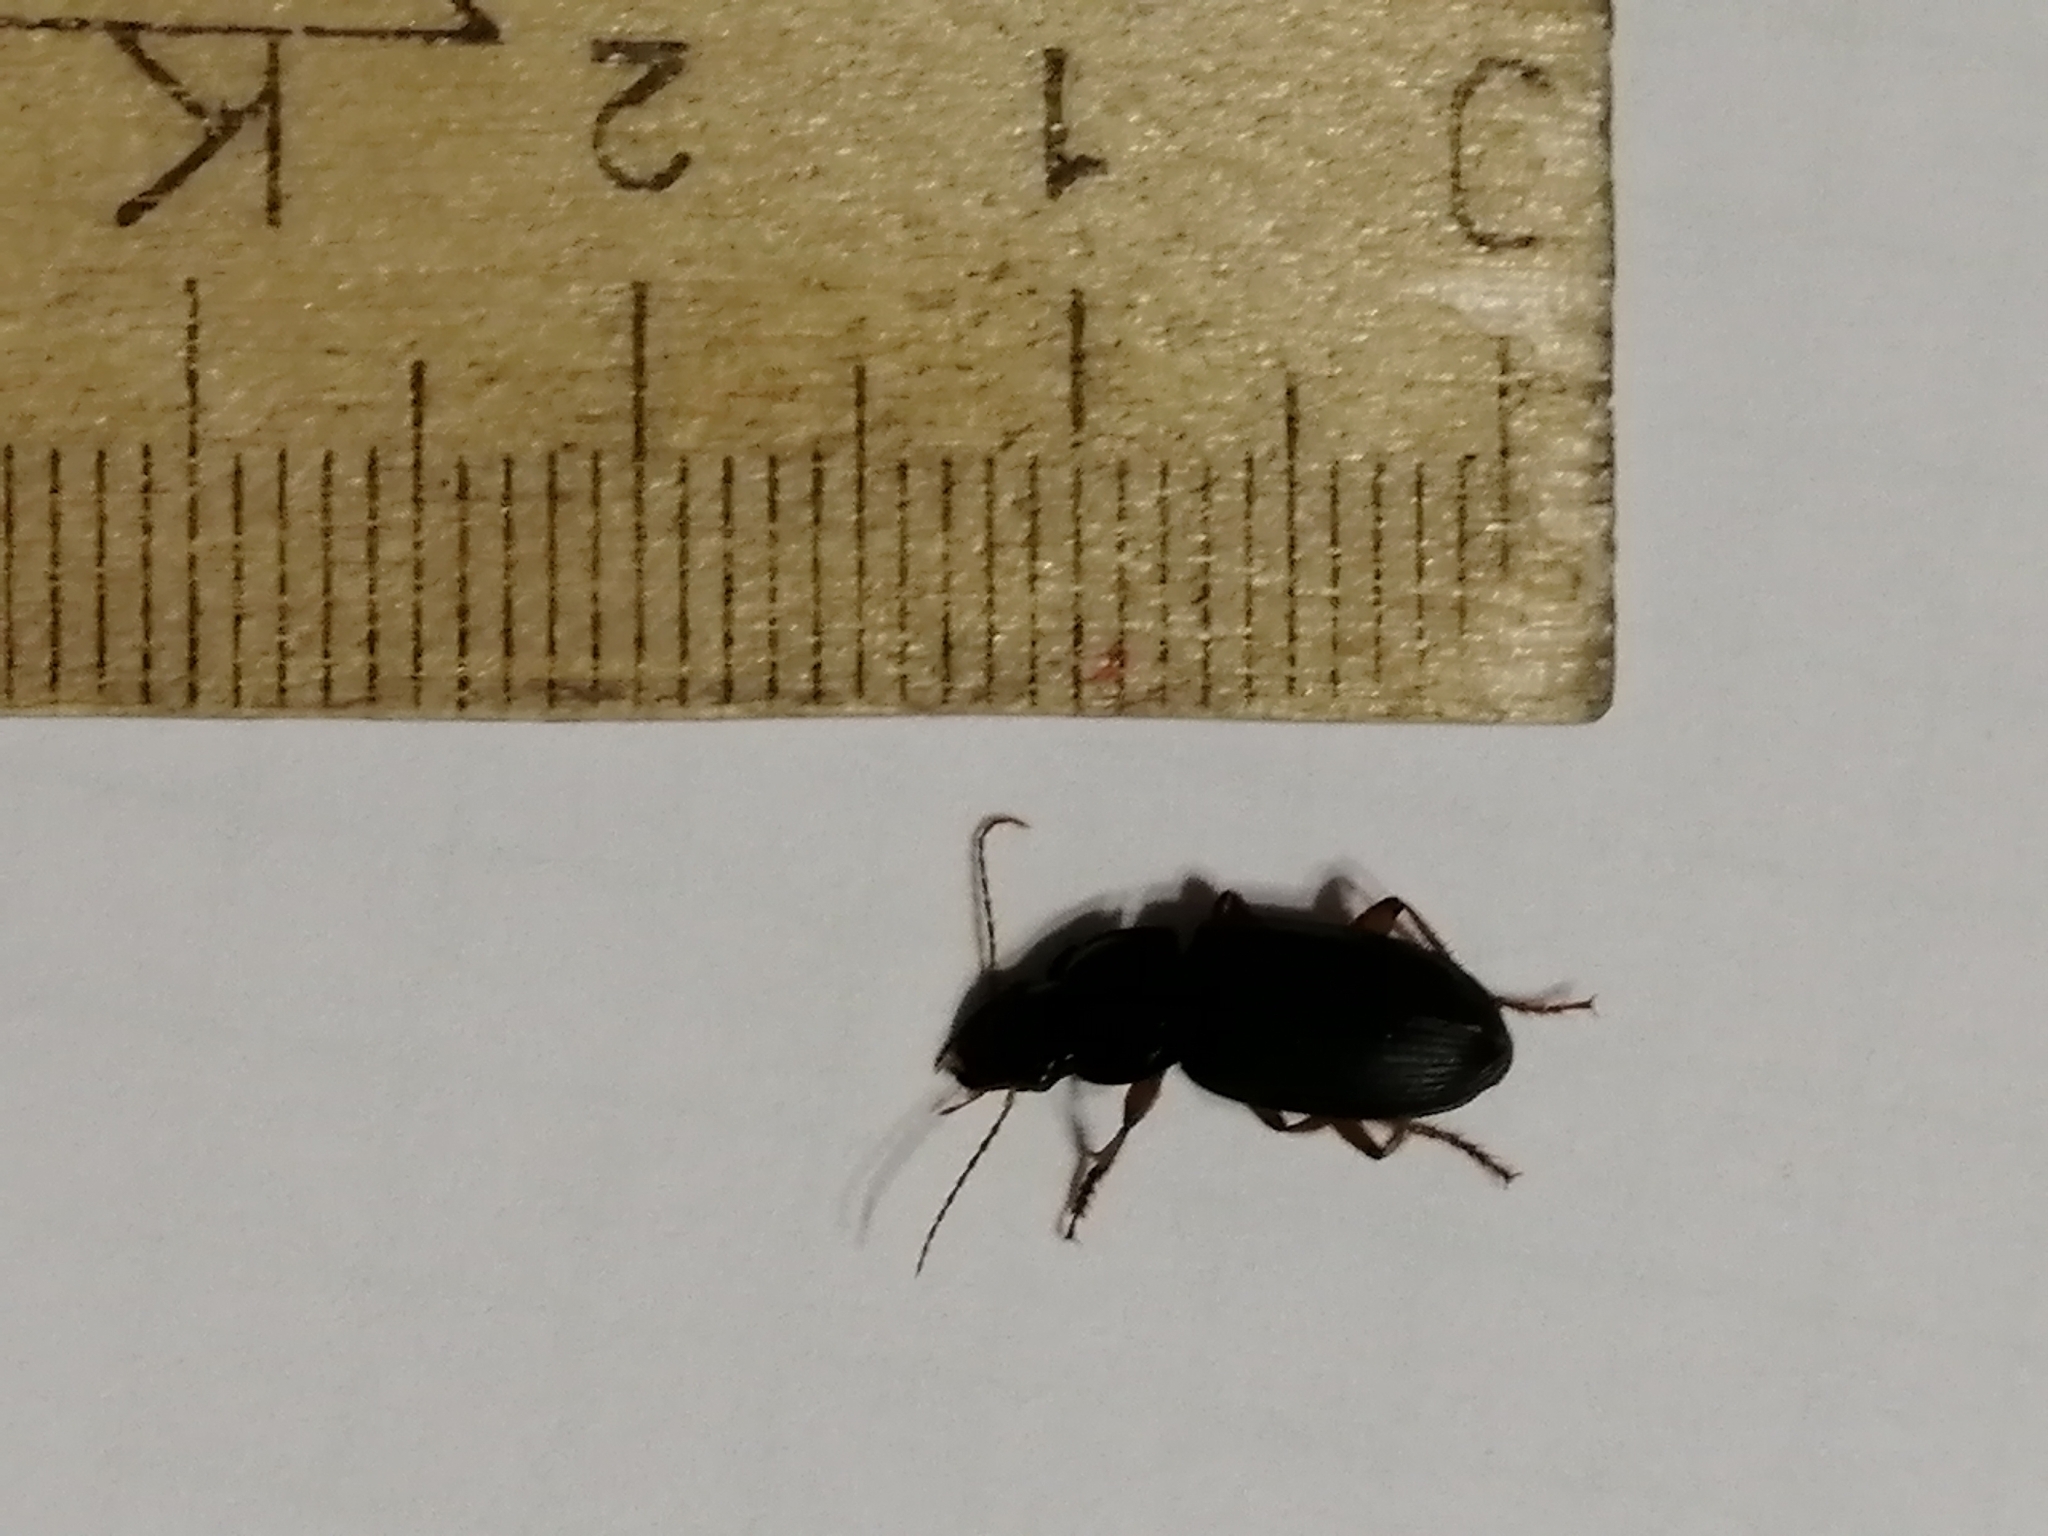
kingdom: Animalia
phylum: Arthropoda
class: Insecta
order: Coleoptera
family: Carabidae
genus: Harpalus
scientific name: Harpalus rufipes
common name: Strawberry harp ground beetle
